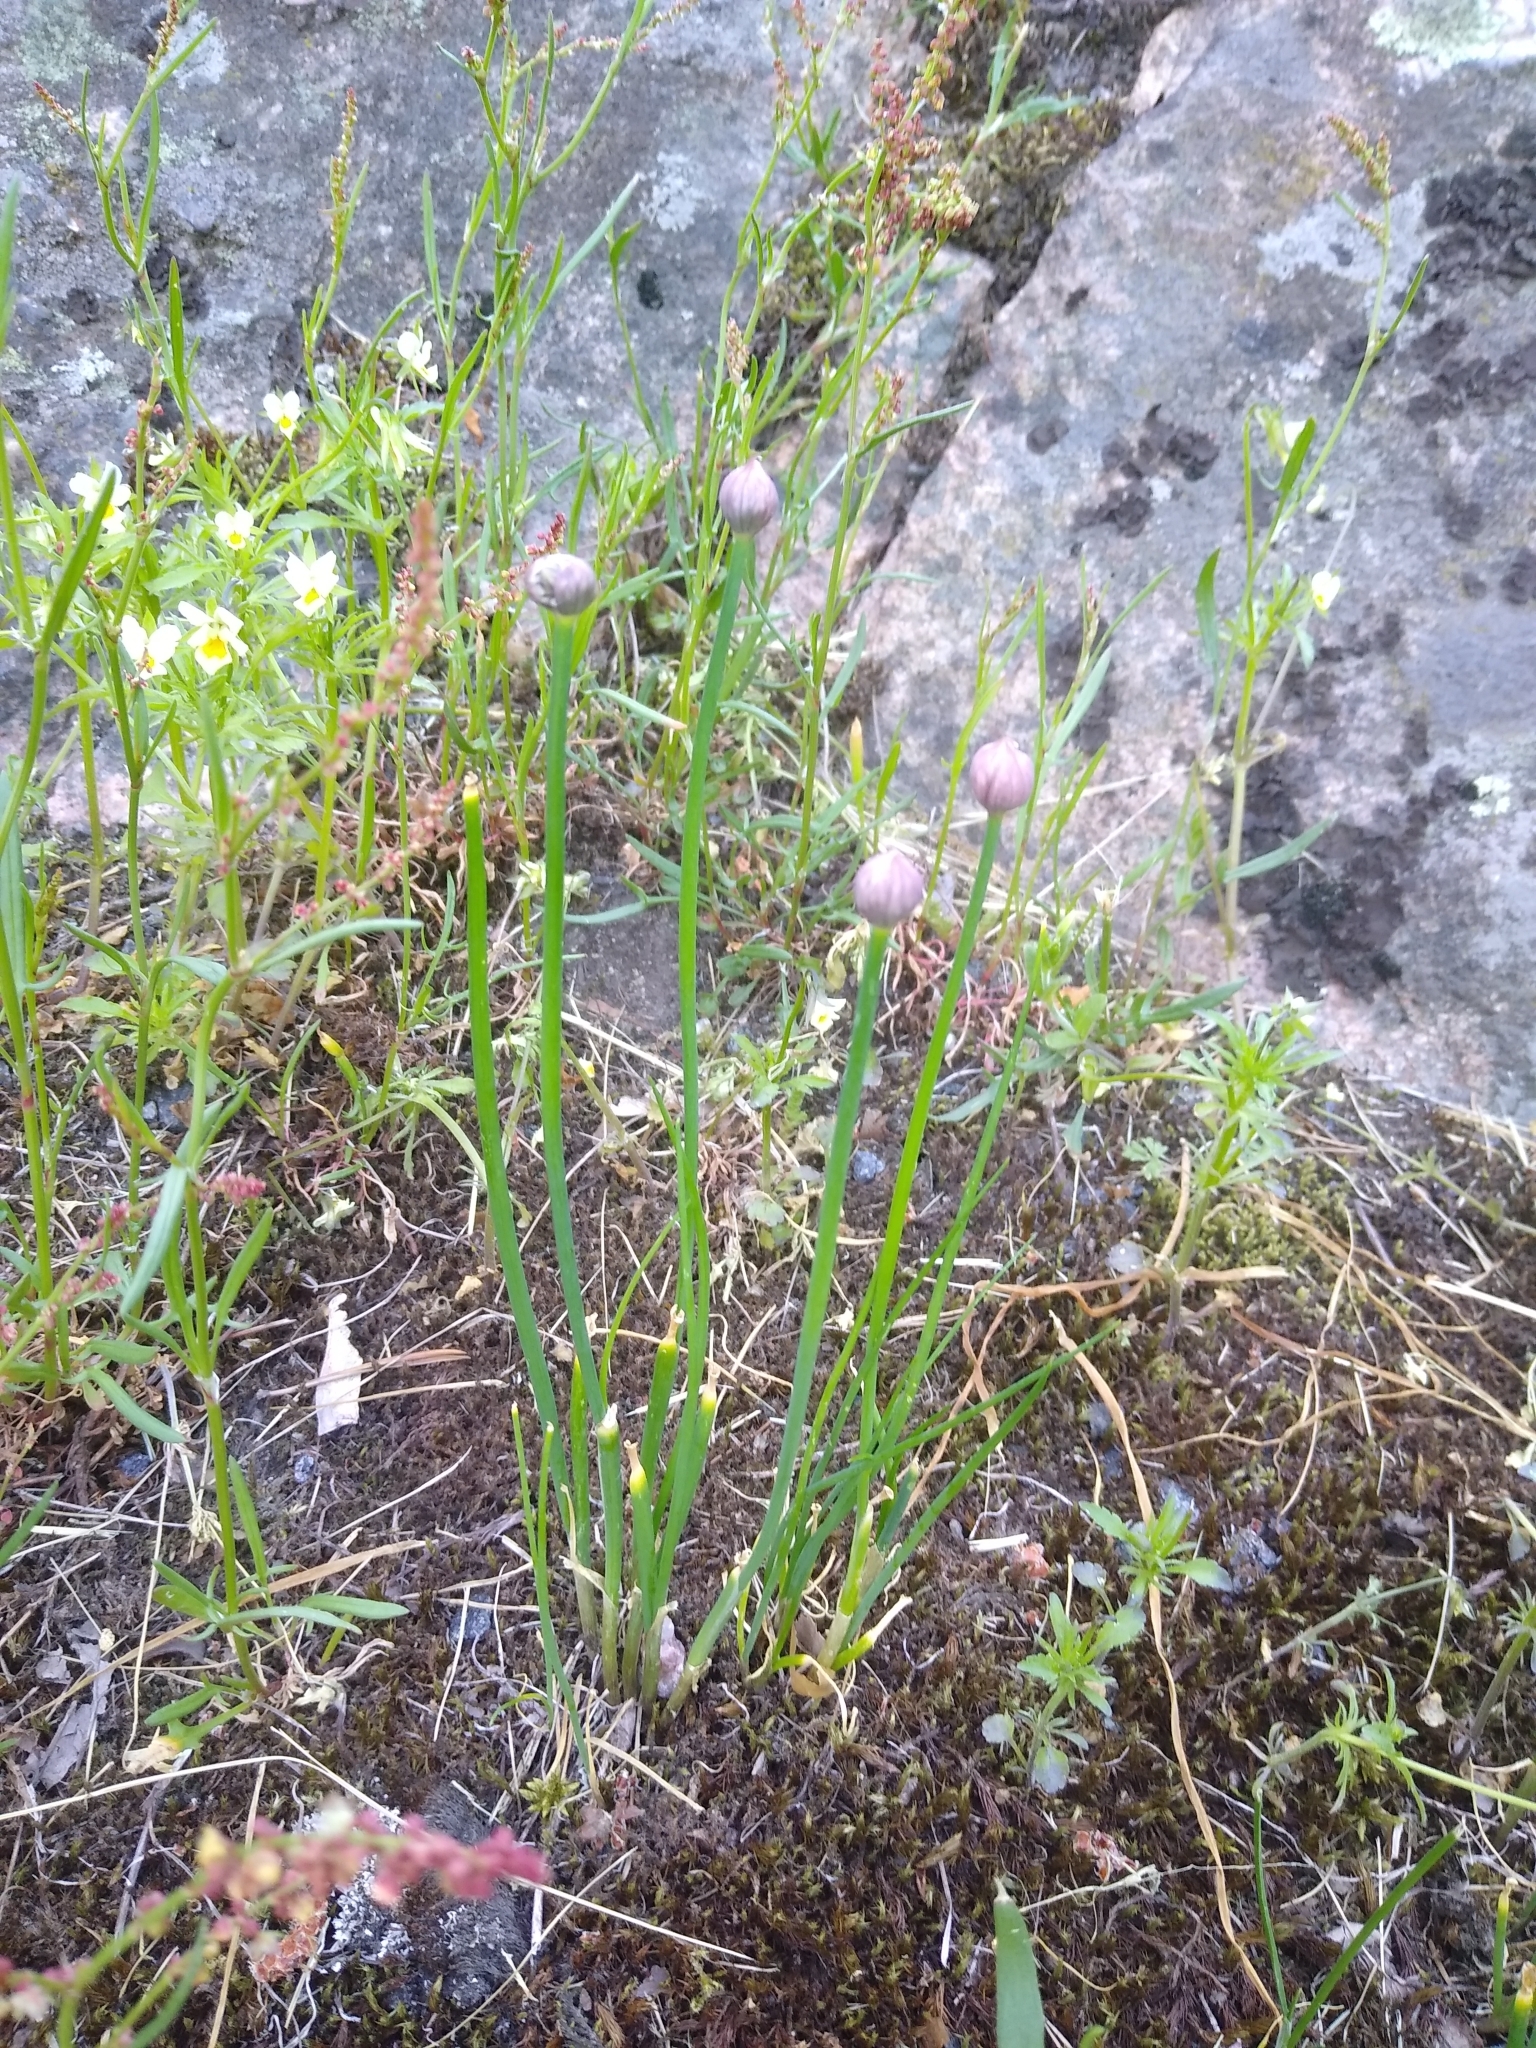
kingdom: Plantae
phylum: Tracheophyta
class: Liliopsida
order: Asparagales
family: Amaryllidaceae
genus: Allium
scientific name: Allium schoenoprasum
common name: Chives
